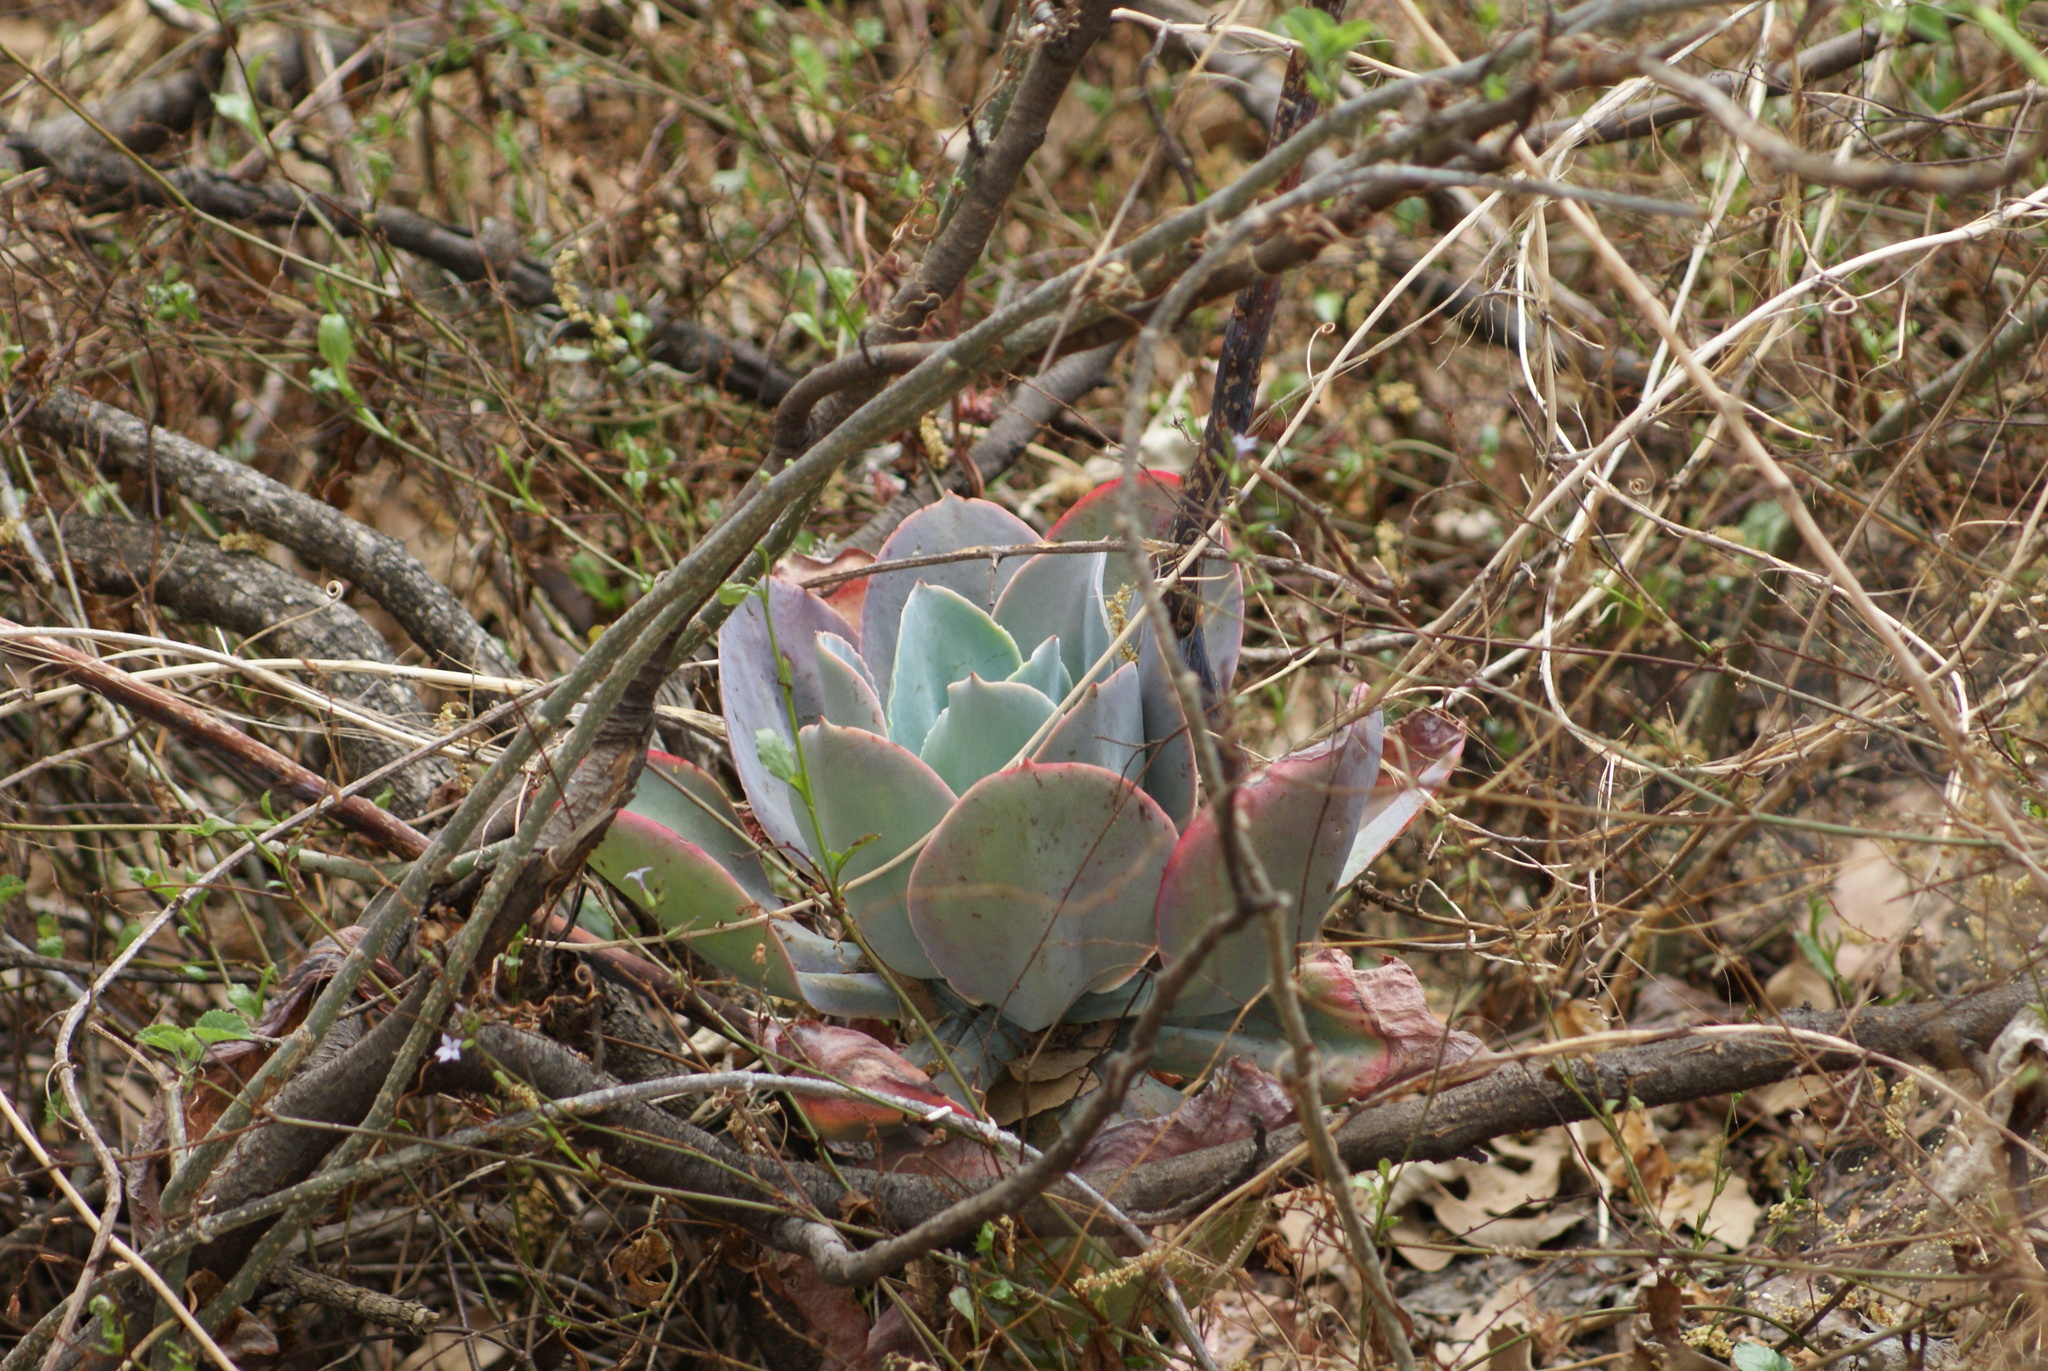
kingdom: Plantae
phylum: Tracheophyta
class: Magnoliopsida
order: Saxifragales
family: Crassulaceae
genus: Echeveria
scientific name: Echeveria gibbiflora
